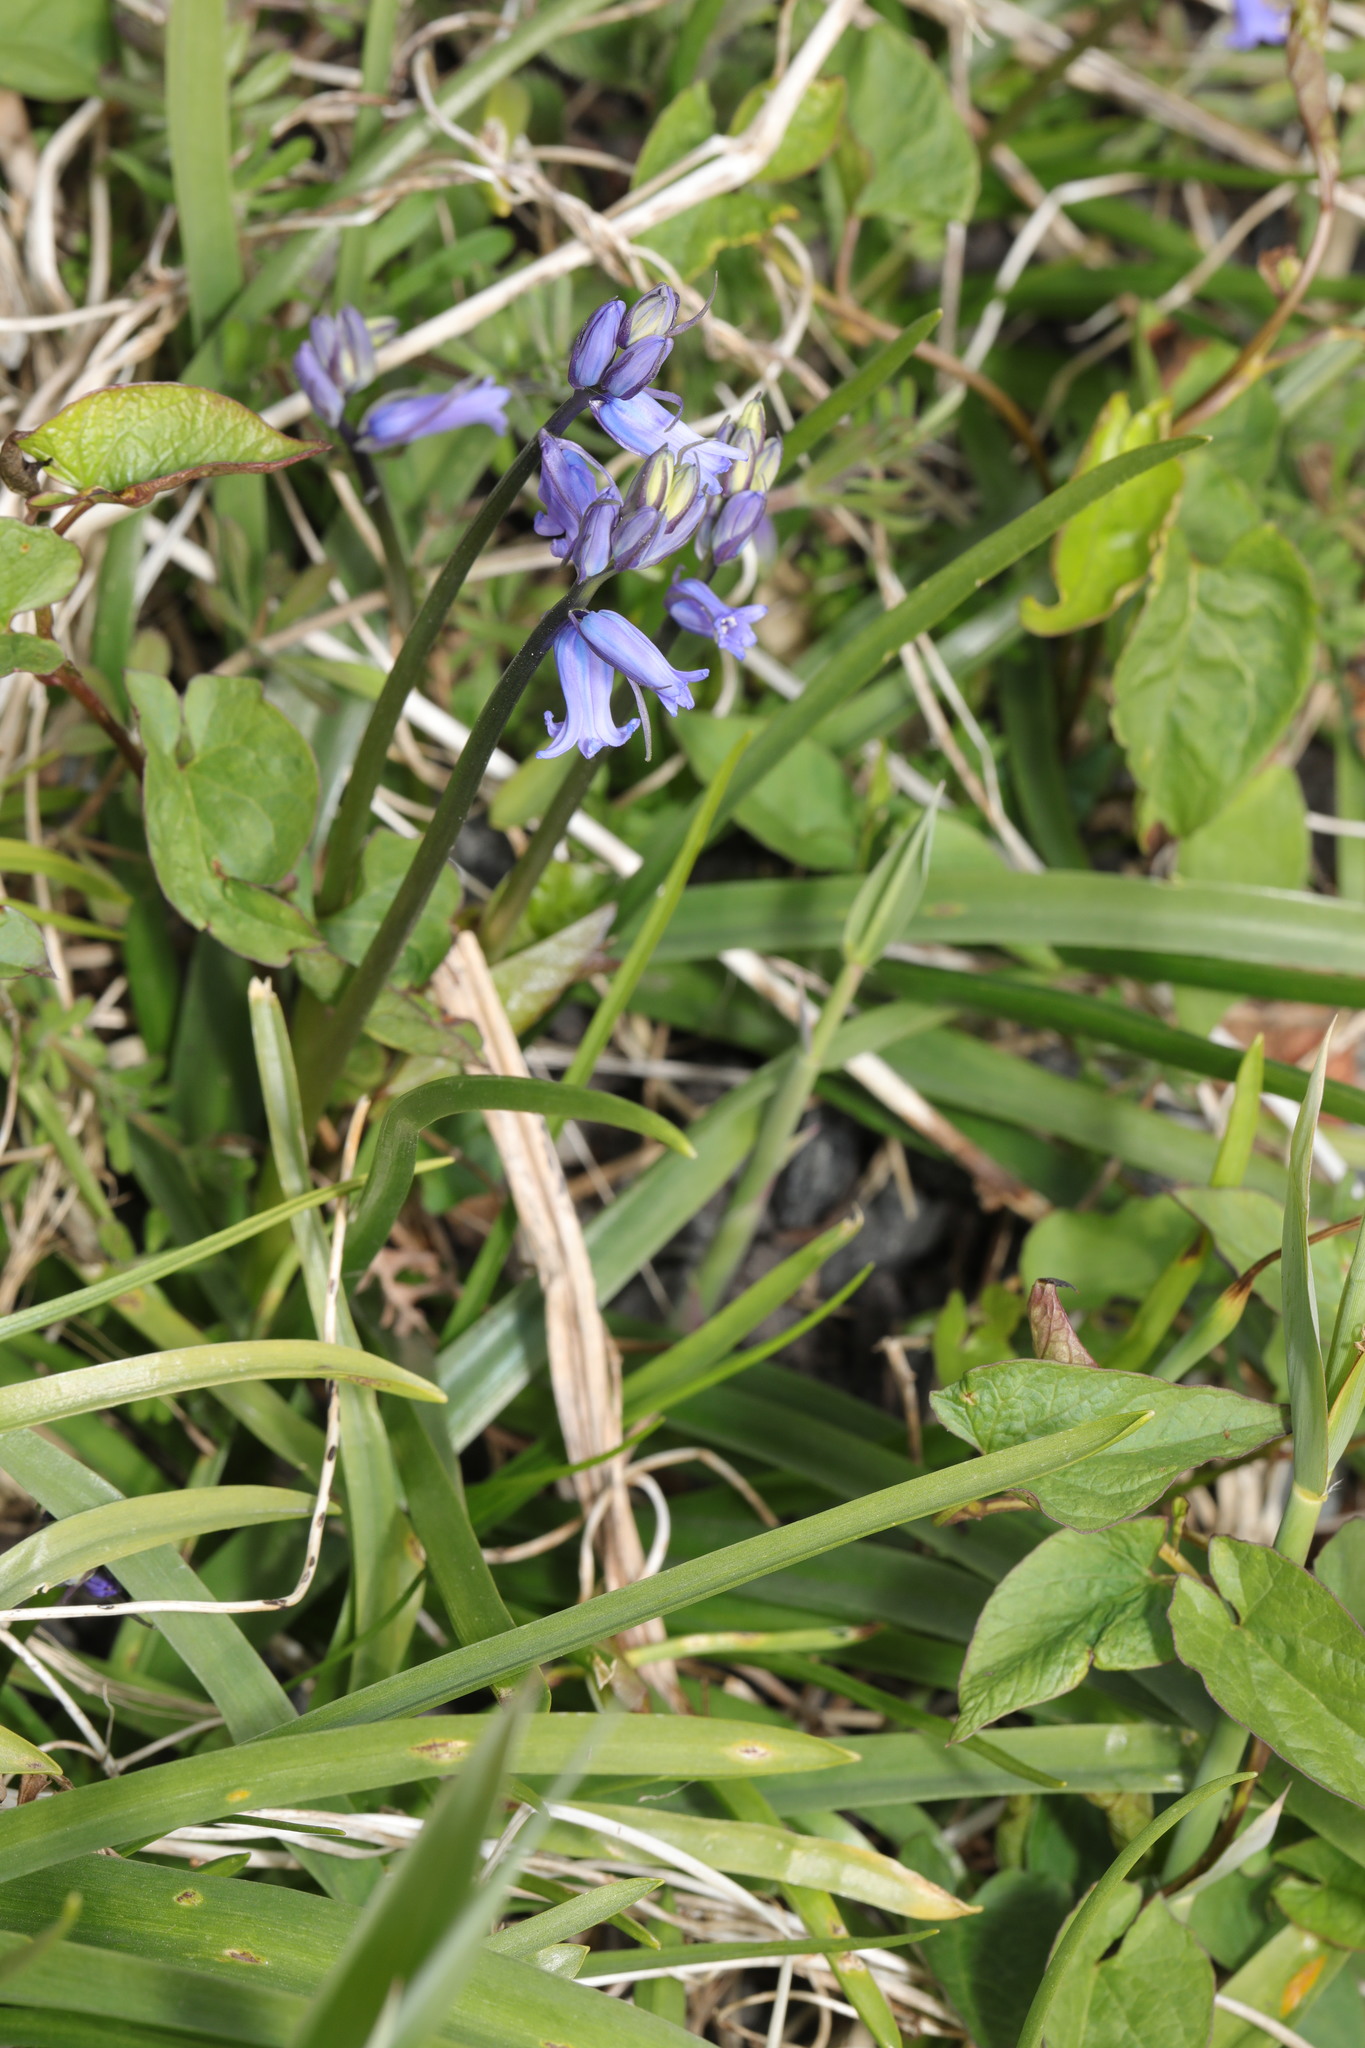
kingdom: Plantae
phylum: Tracheophyta
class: Liliopsida
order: Asparagales
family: Asparagaceae
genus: Hyacinthoides
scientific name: Hyacinthoides massartiana
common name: Hyacinthoides
